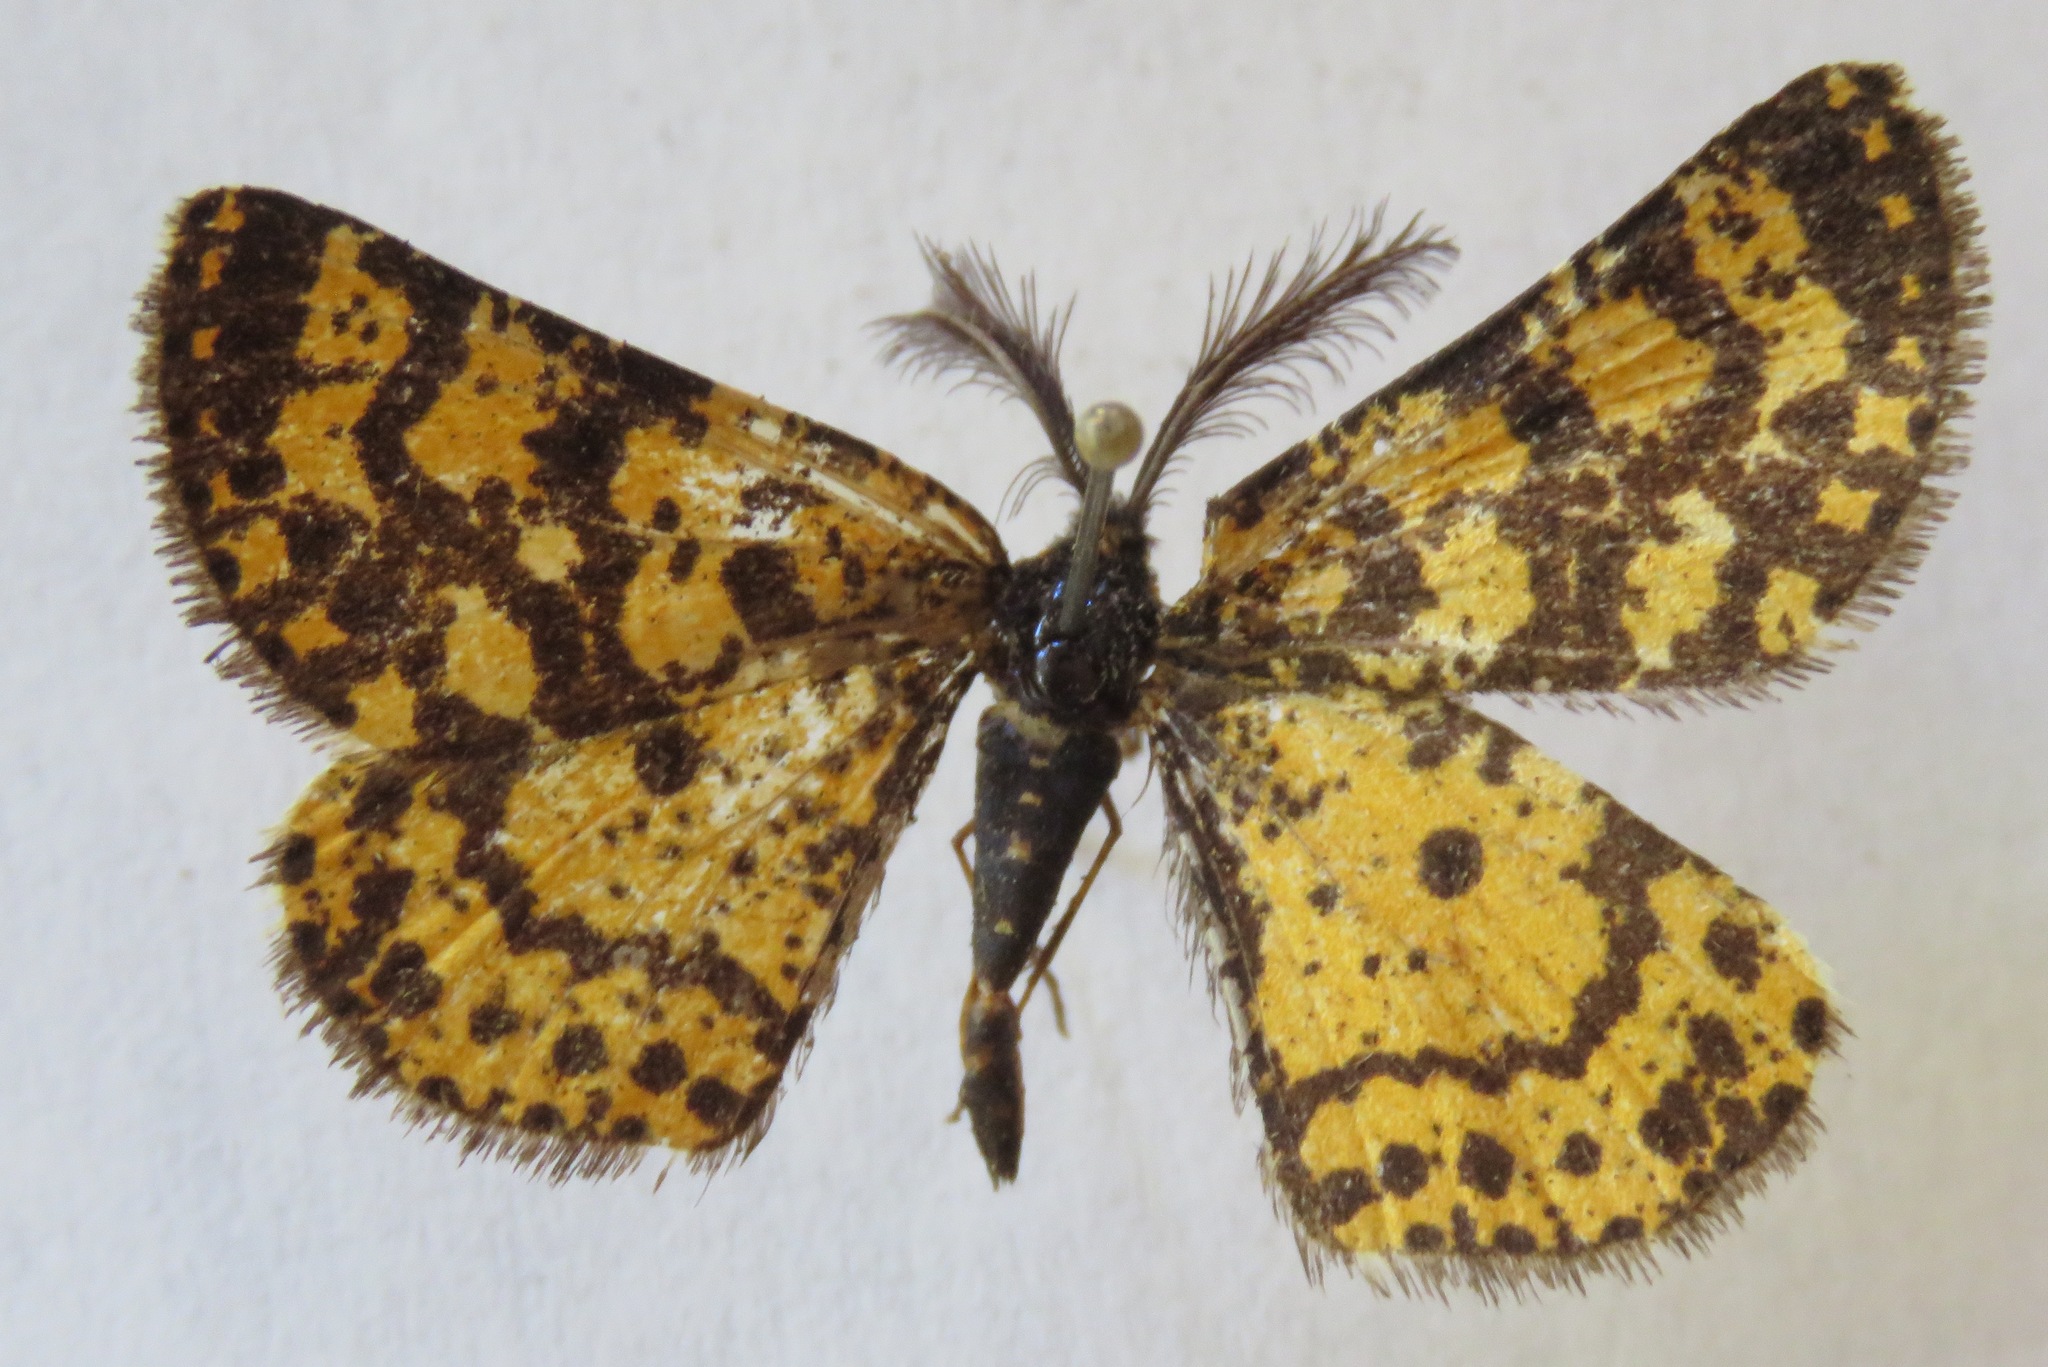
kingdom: Animalia
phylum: Arthropoda
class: Insecta
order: Lepidoptera
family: Geometridae
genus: Eurranthis
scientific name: Eurranthis plummistaria
